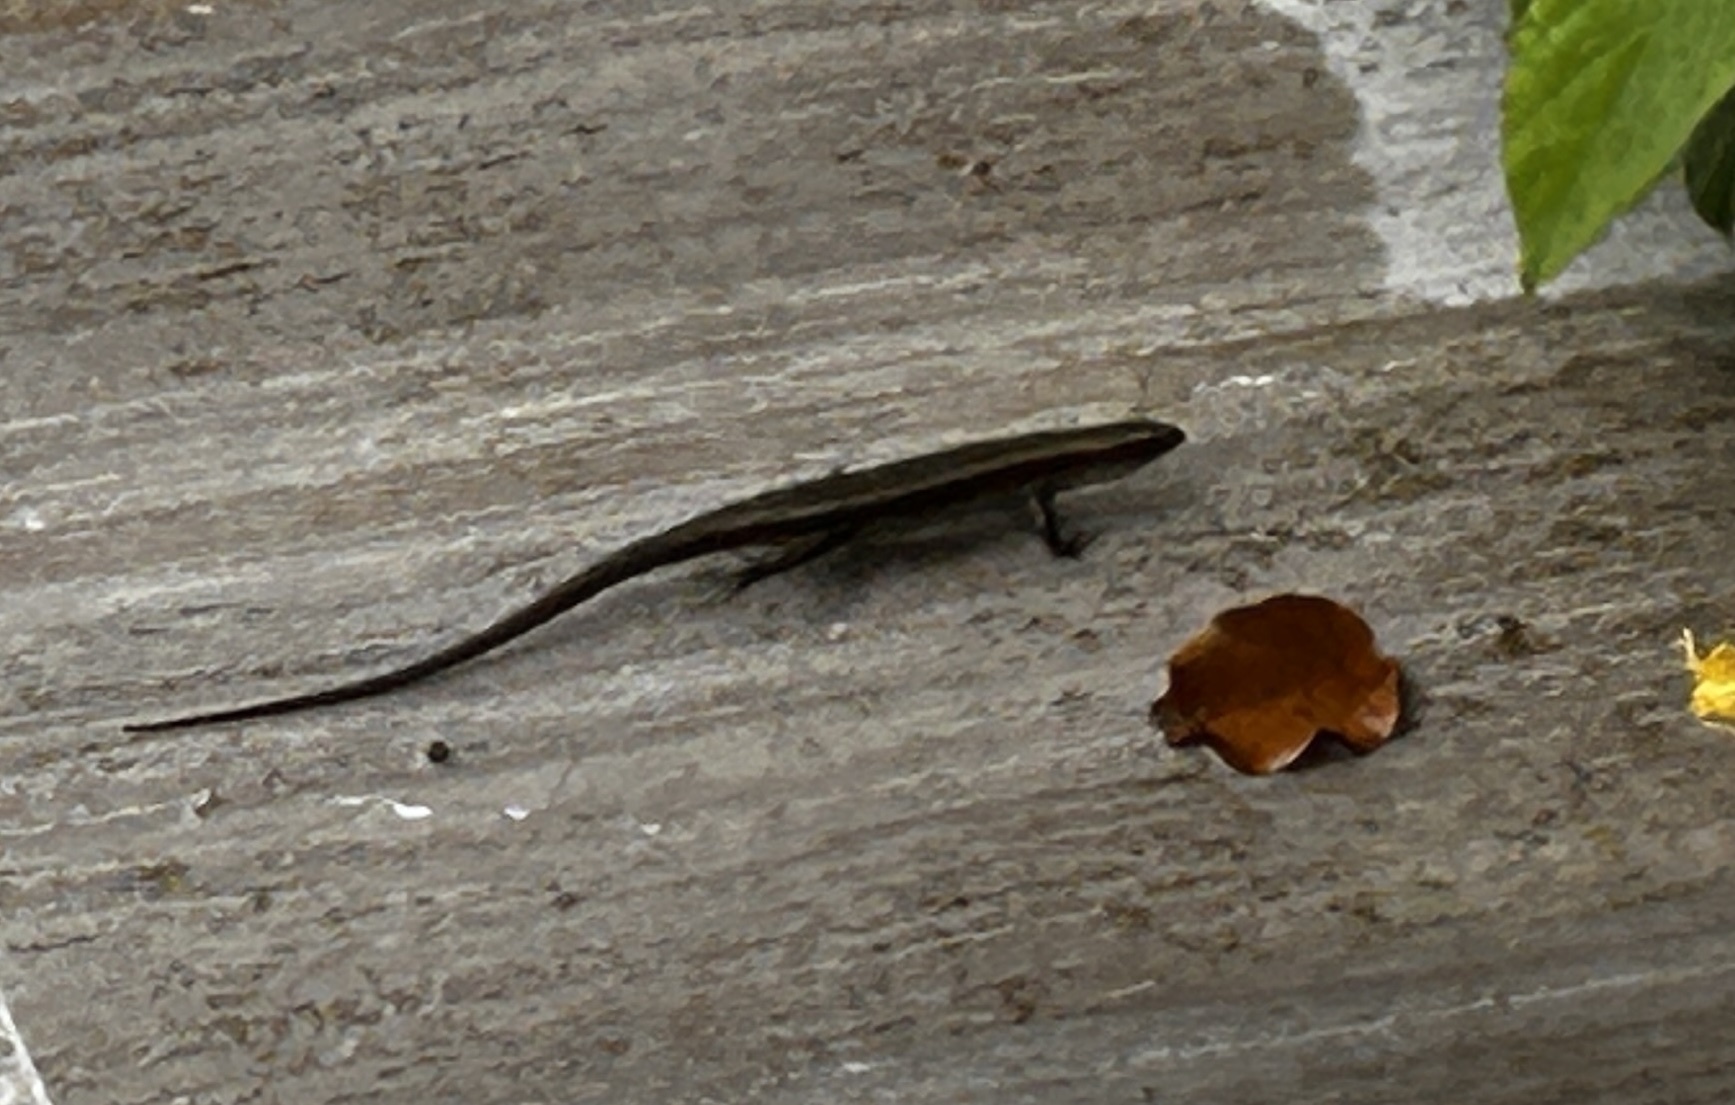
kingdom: Animalia
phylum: Chordata
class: Squamata
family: Scincidae
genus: Eutropis
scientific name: Eutropis multifasciata
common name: Common mabuya
